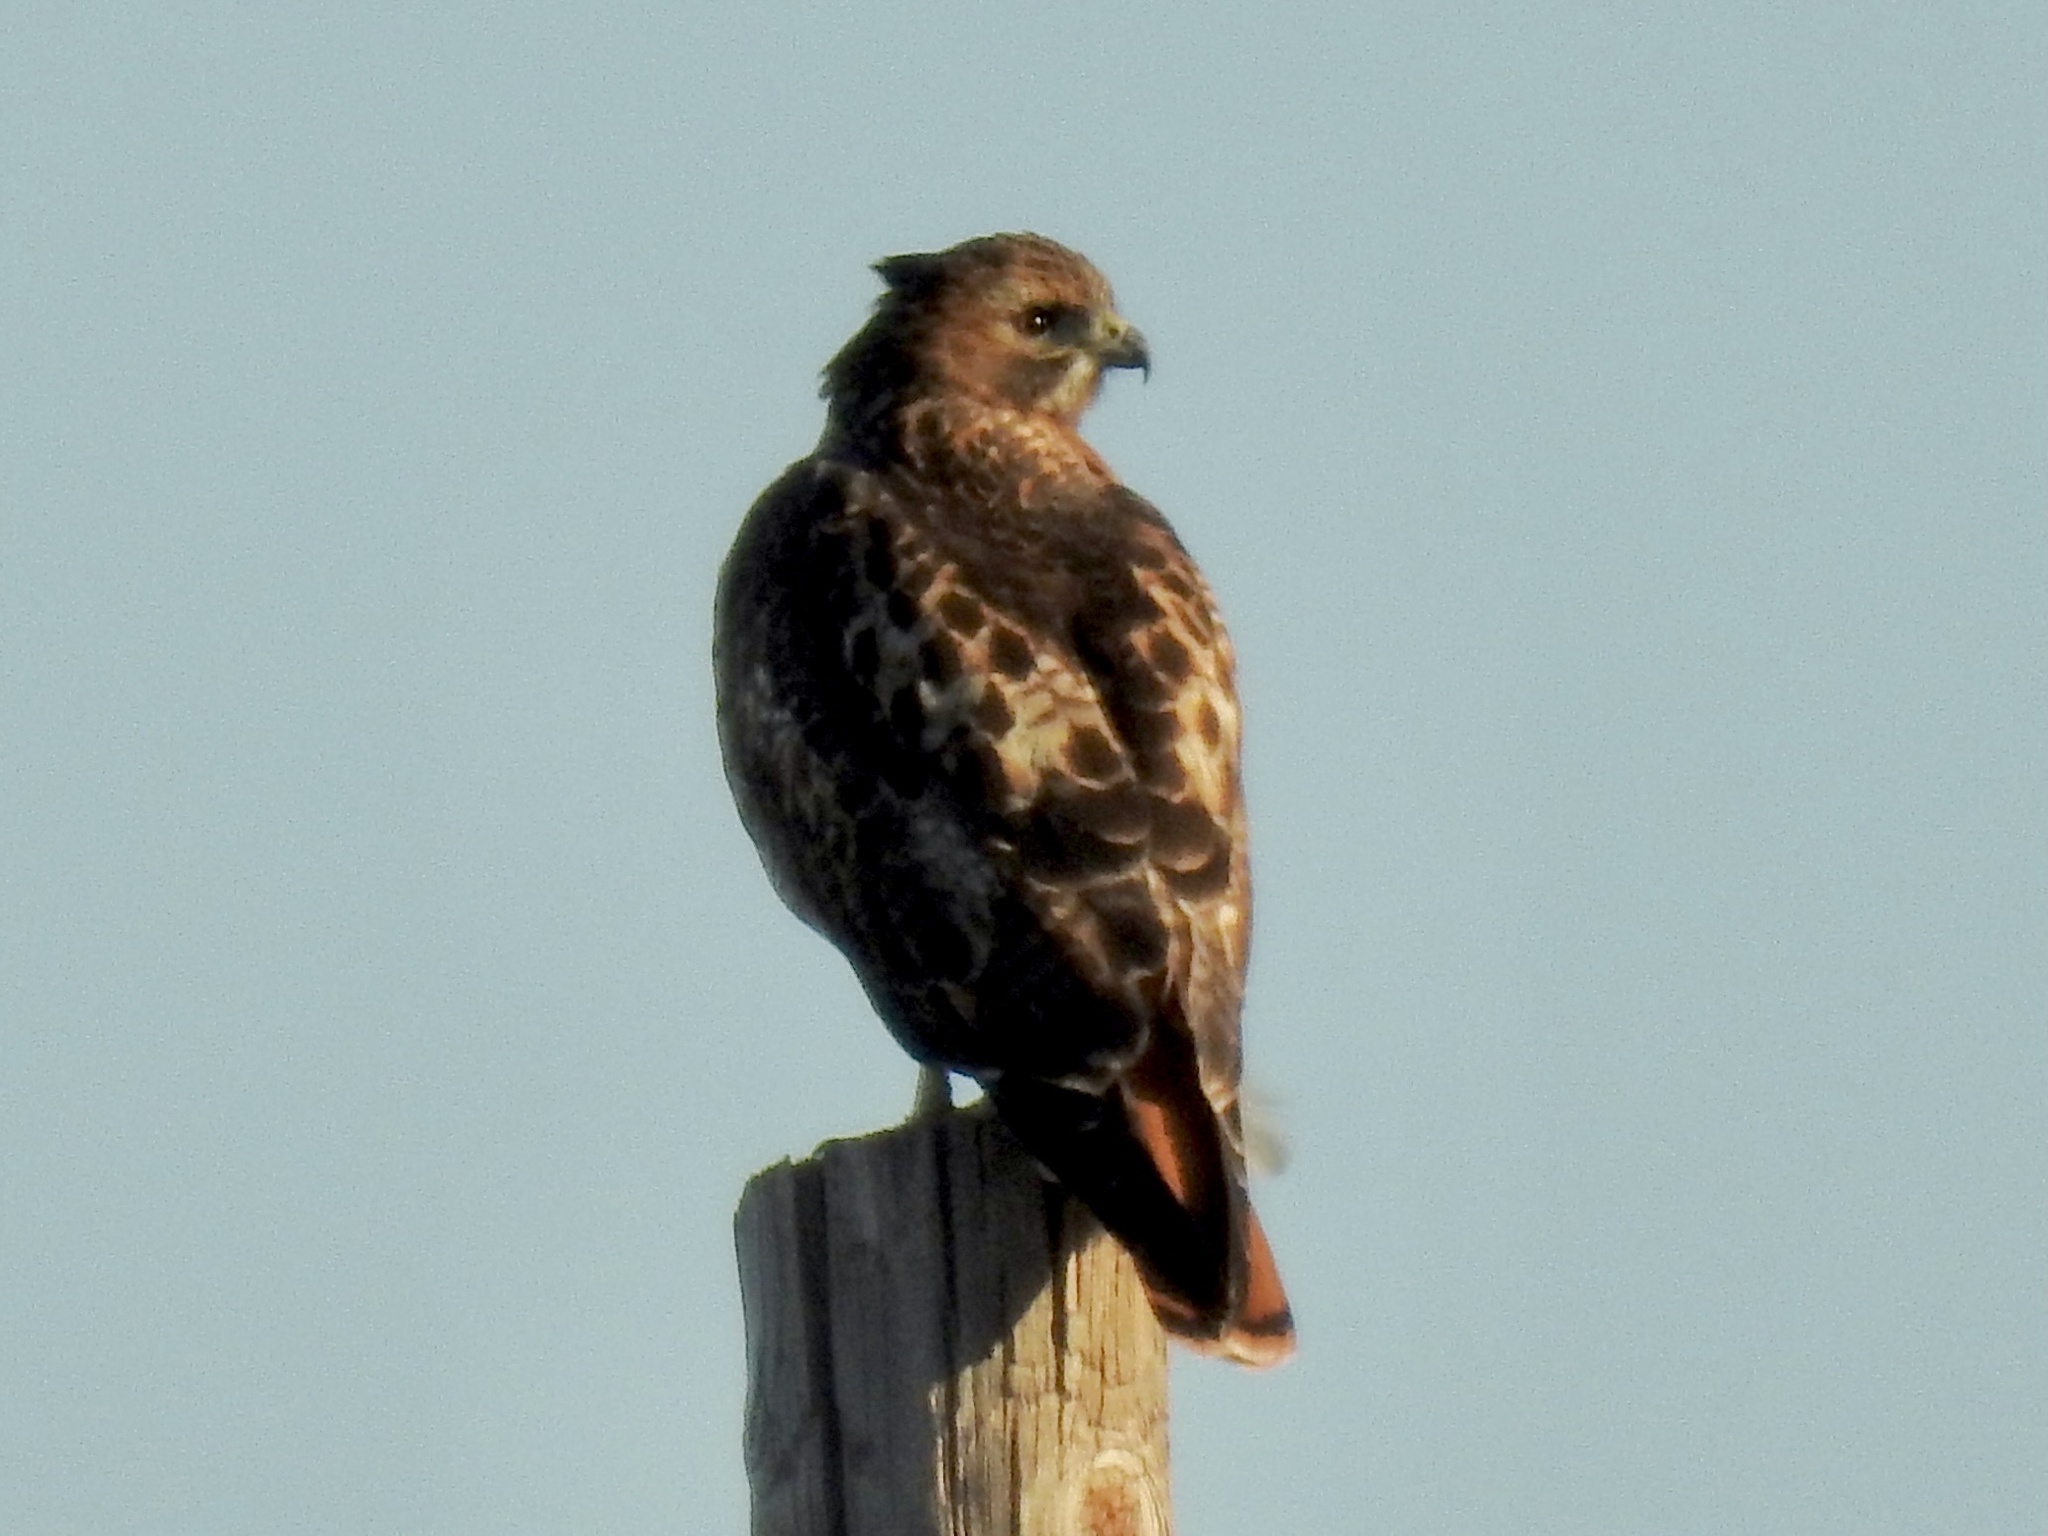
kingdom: Animalia
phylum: Chordata
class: Aves
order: Accipitriformes
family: Accipitridae
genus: Buteo
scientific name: Buteo jamaicensis
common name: Red-tailed hawk
